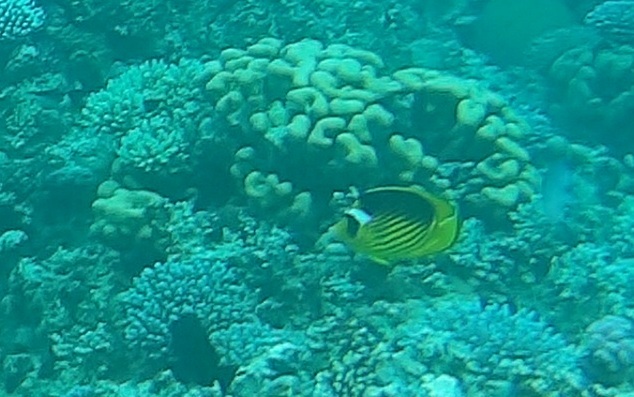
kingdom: Animalia
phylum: Chordata
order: Perciformes
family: Chaetodontidae
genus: Chaetodon
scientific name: Chaetodon fasciatus
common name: Diagonal butterflyfish
